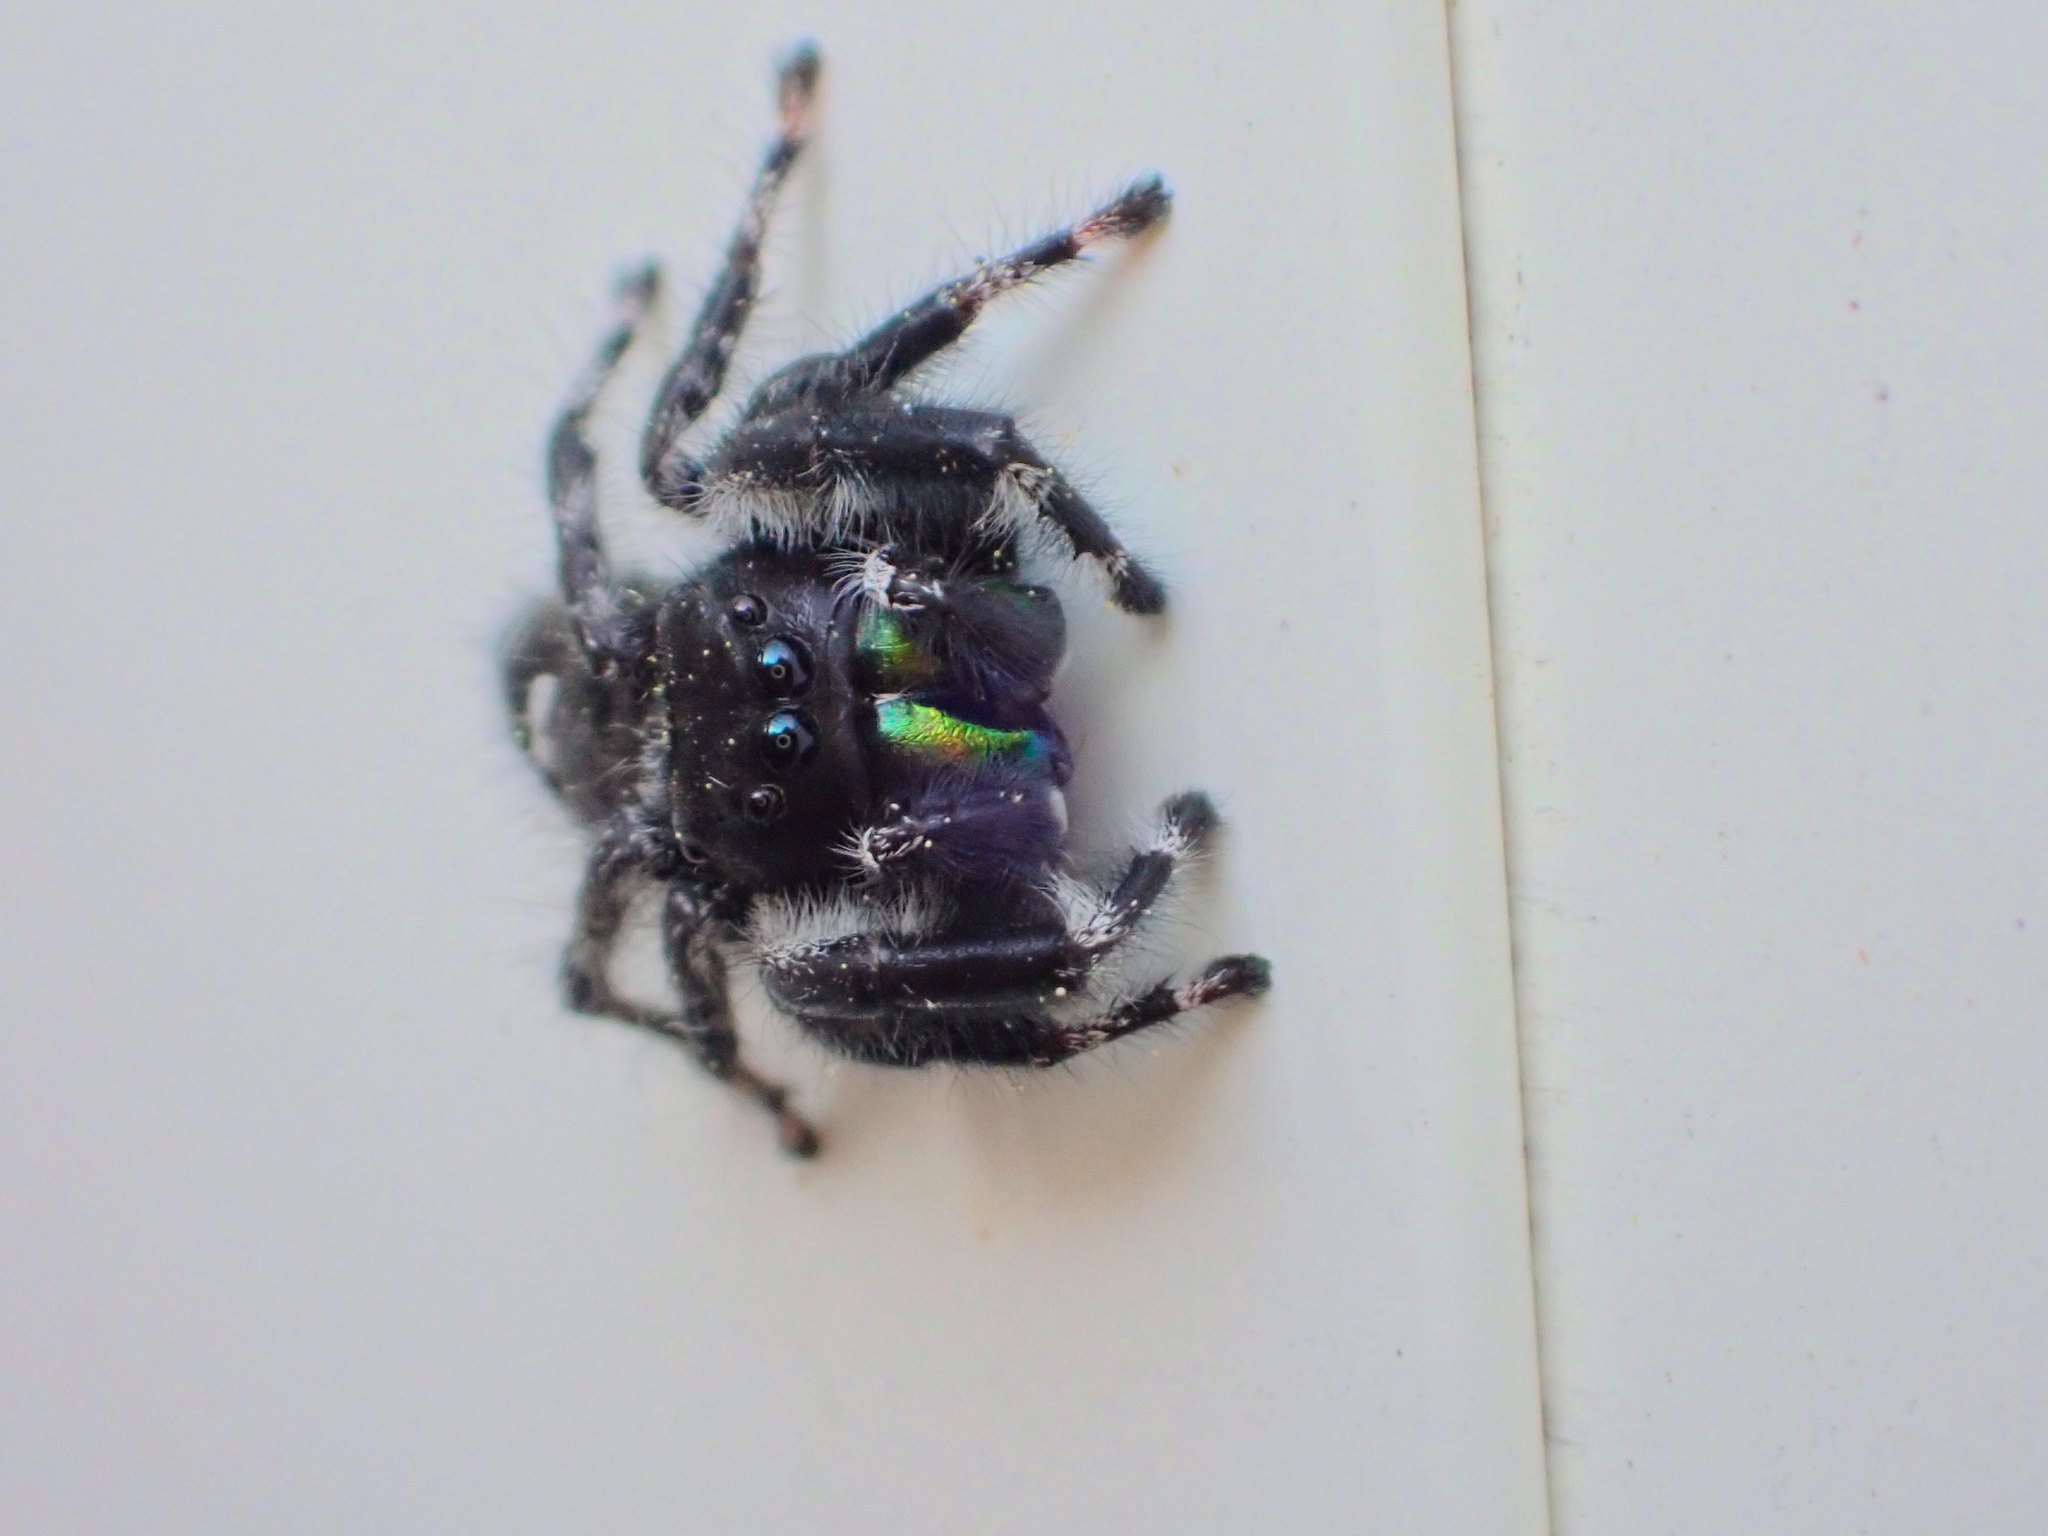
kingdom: Animalia
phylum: Arthropoda
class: Arachnida
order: Araneae
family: Salticidae
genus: Phidippus
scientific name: Phidippus audax
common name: Bold jumper
